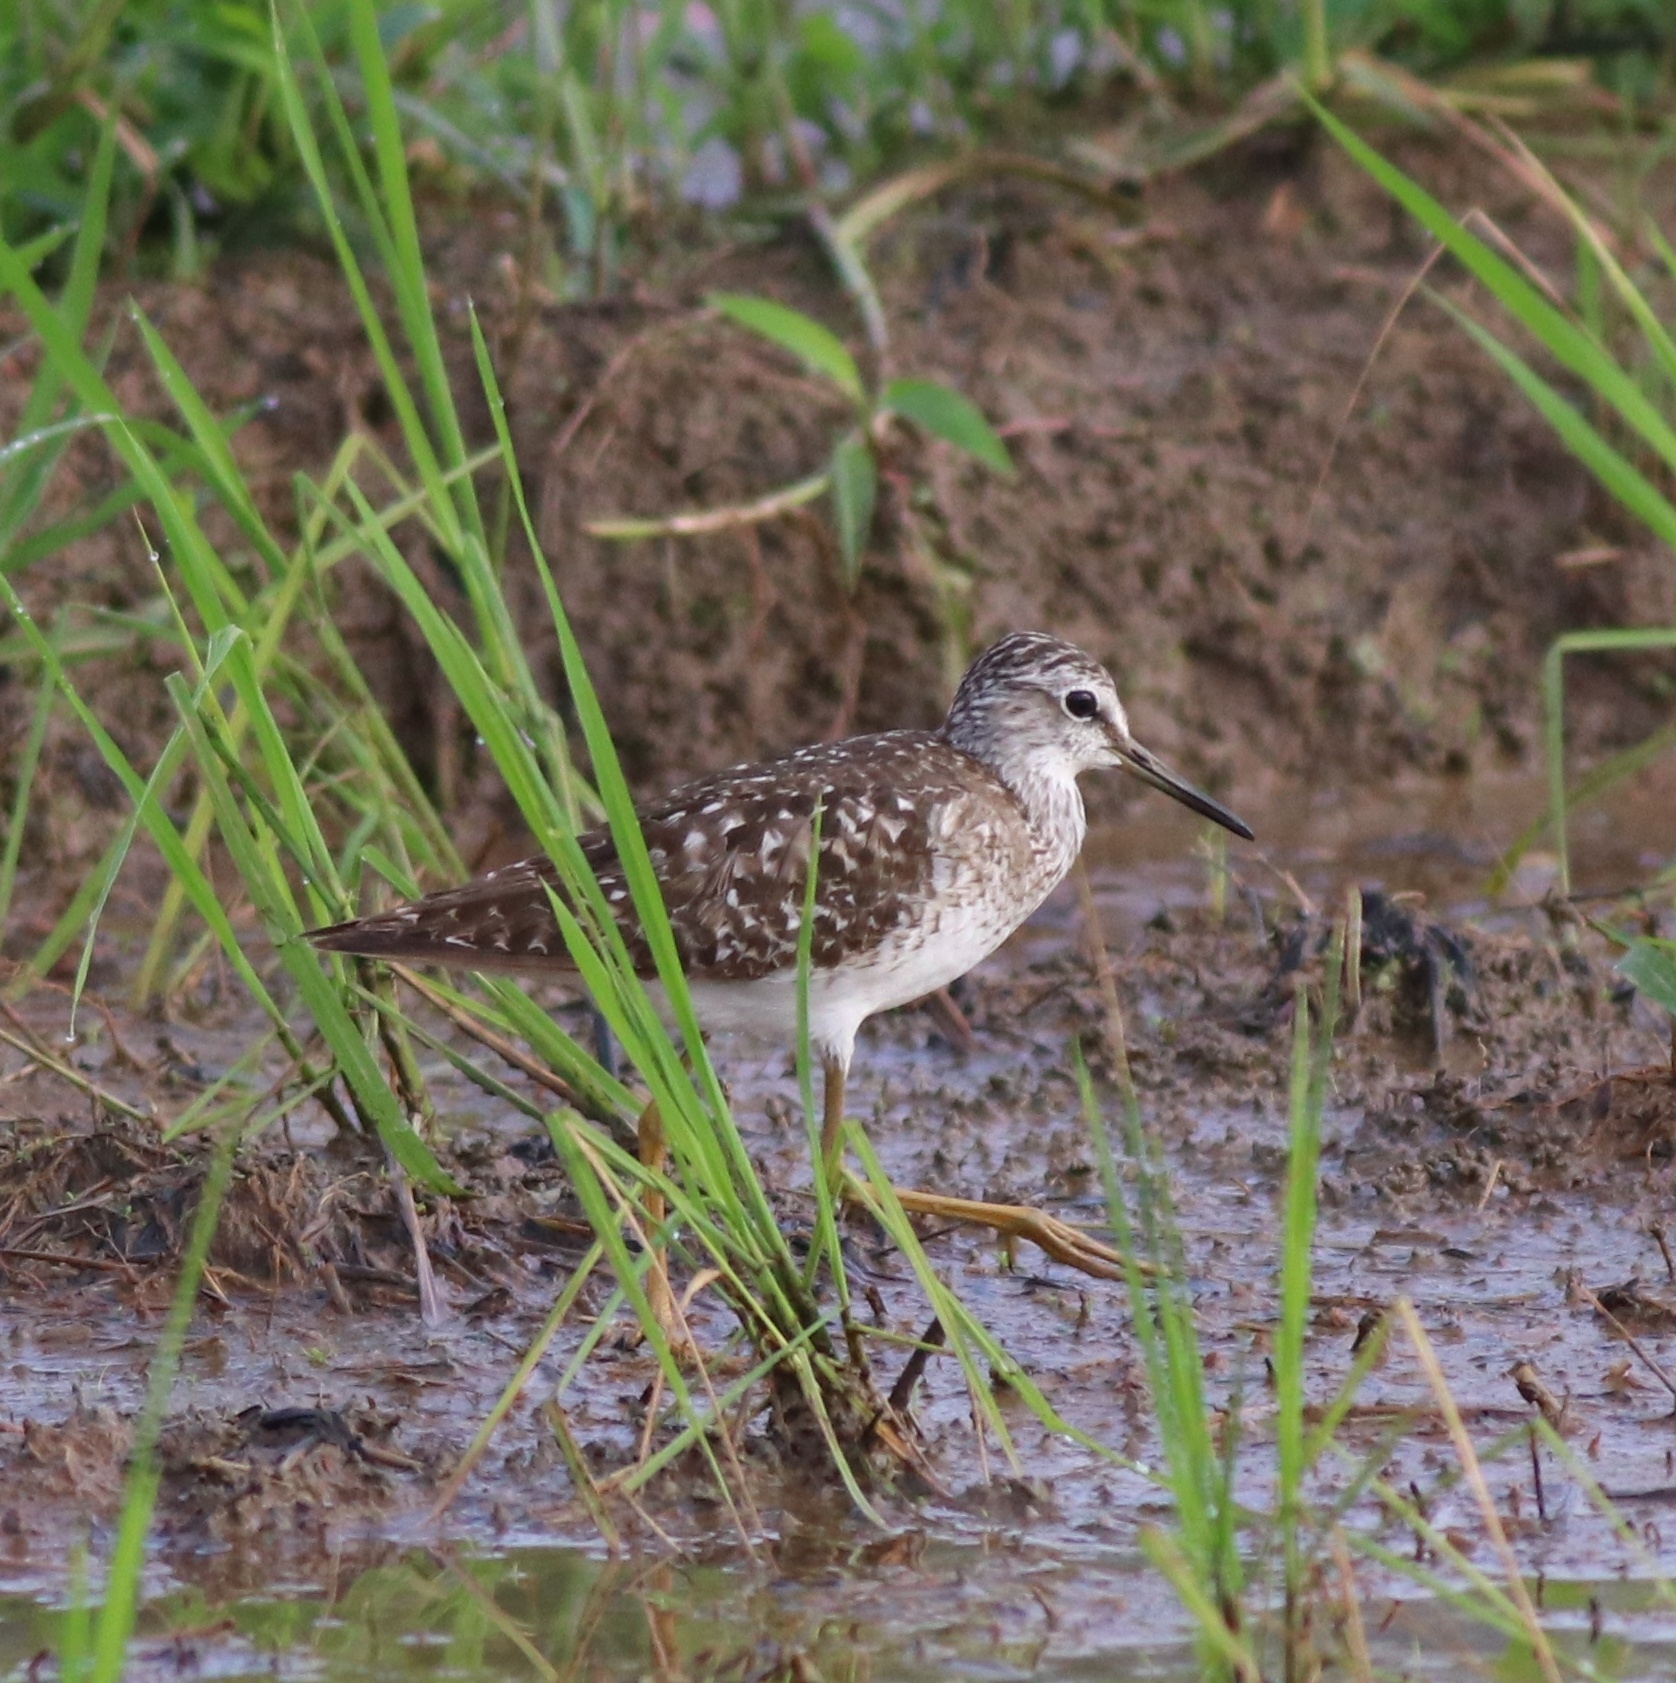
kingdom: Animalia
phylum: Chordata
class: Aves
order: Charadriiformes
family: Scolopacidae
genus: Tringa
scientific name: Tringa glareola
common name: Wood sandpiper
